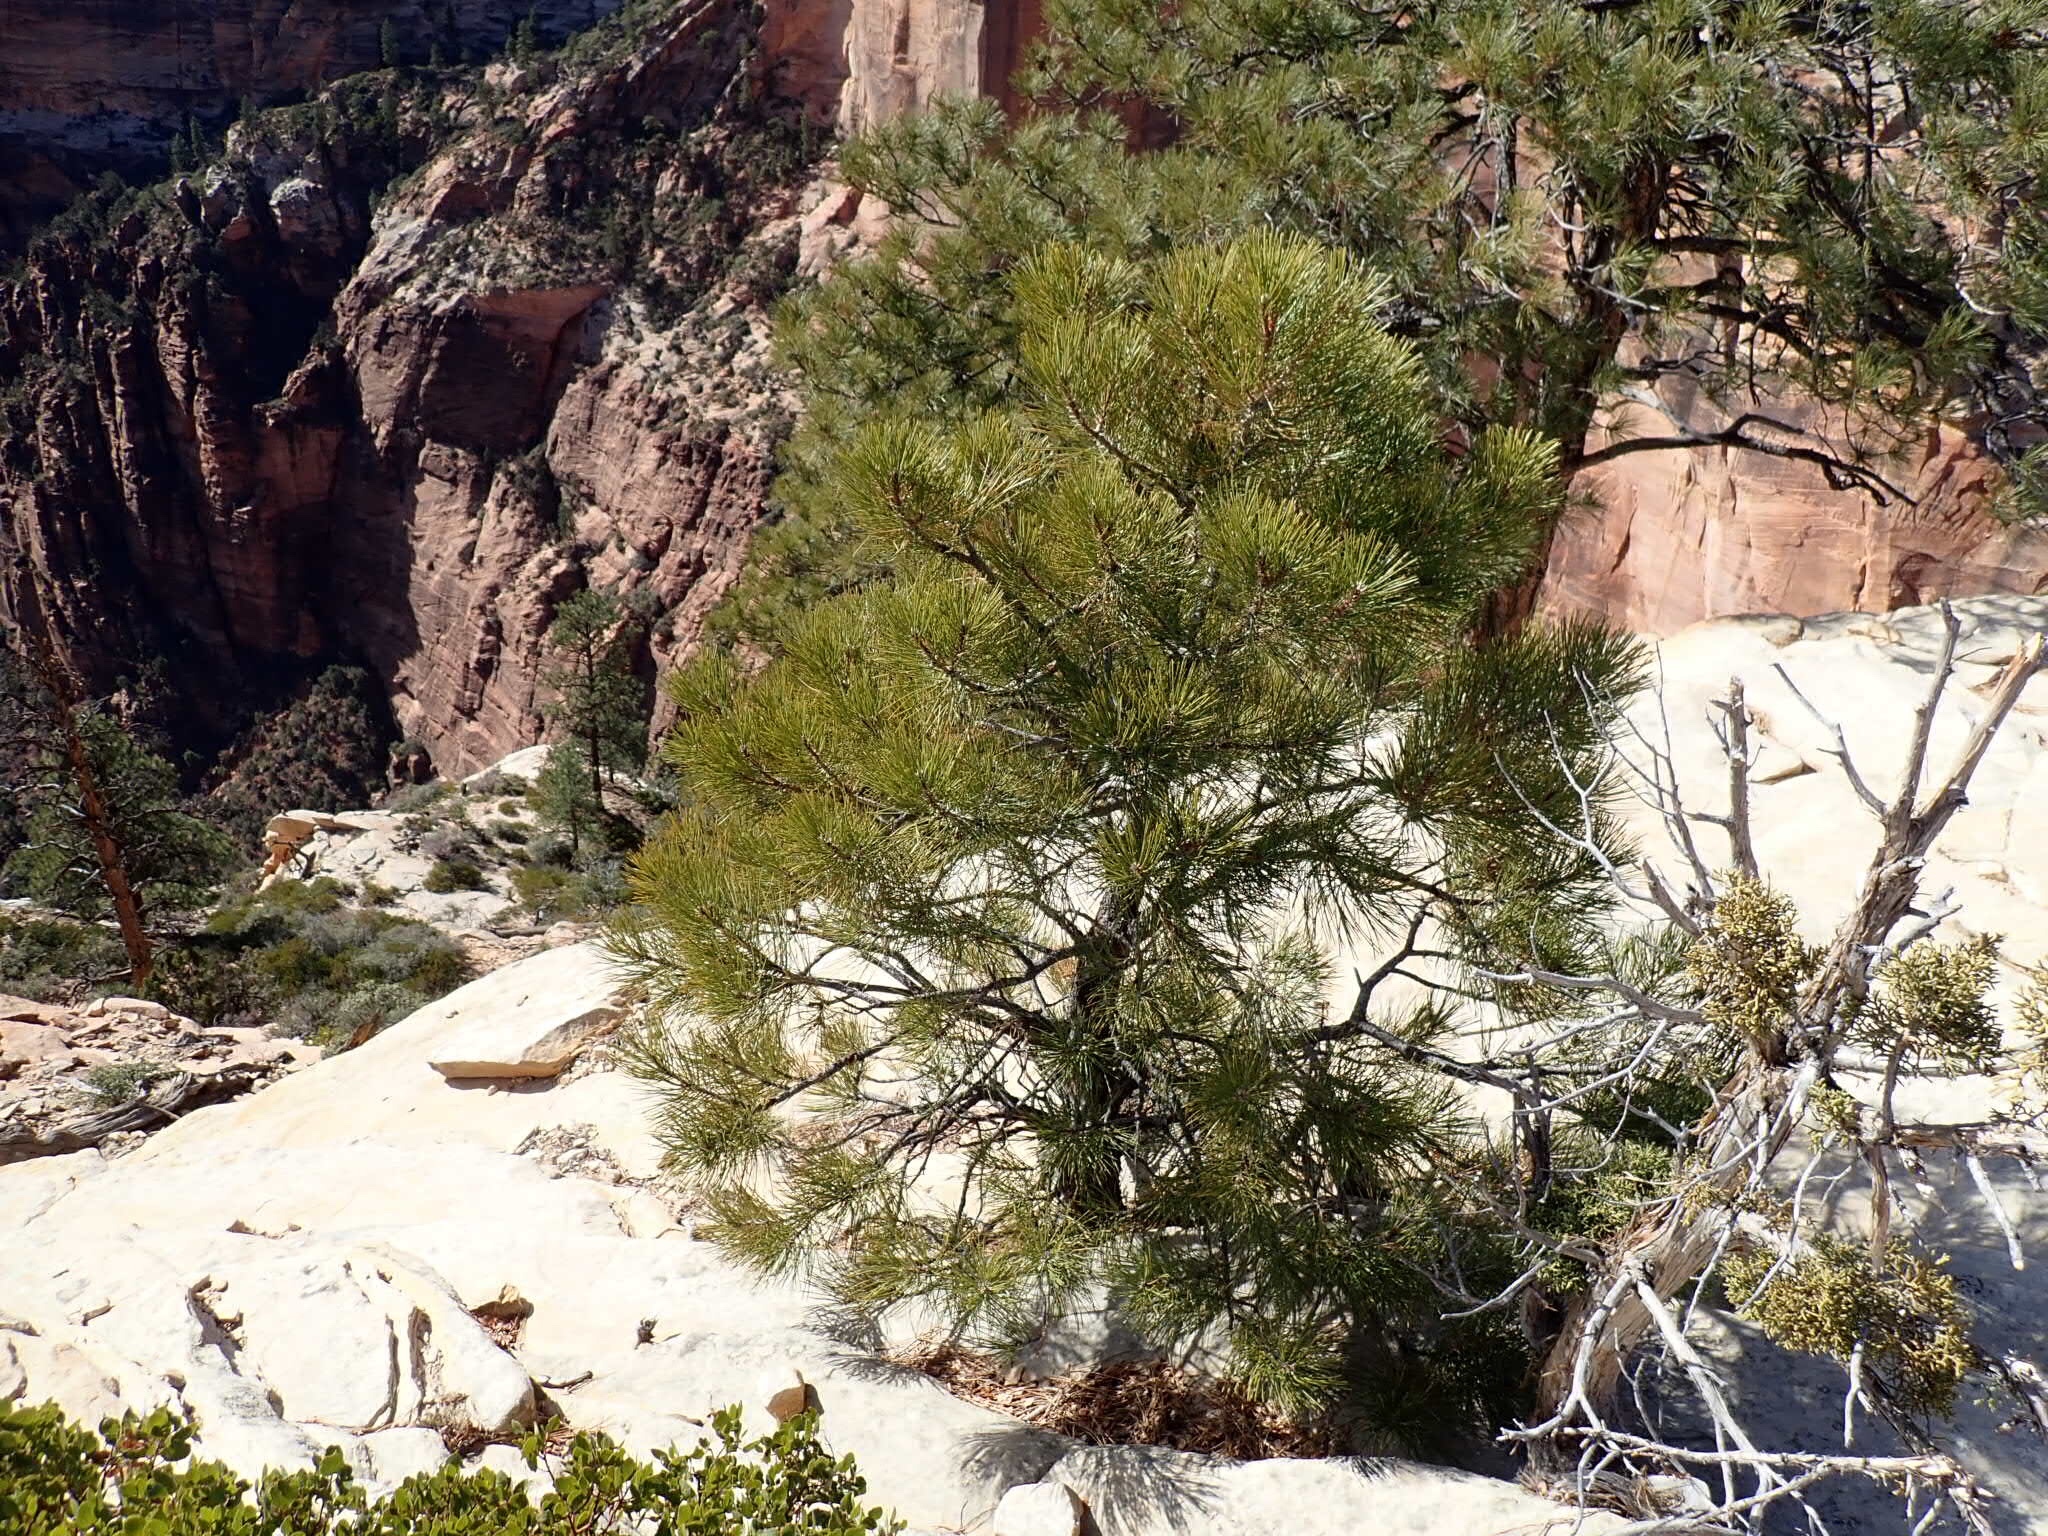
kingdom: Plantae
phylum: Tracheophyta
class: Pinopsida
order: Pinales
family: Pinaceae
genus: Pinus
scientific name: Pinus ponderosa
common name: Western yellow-pine
